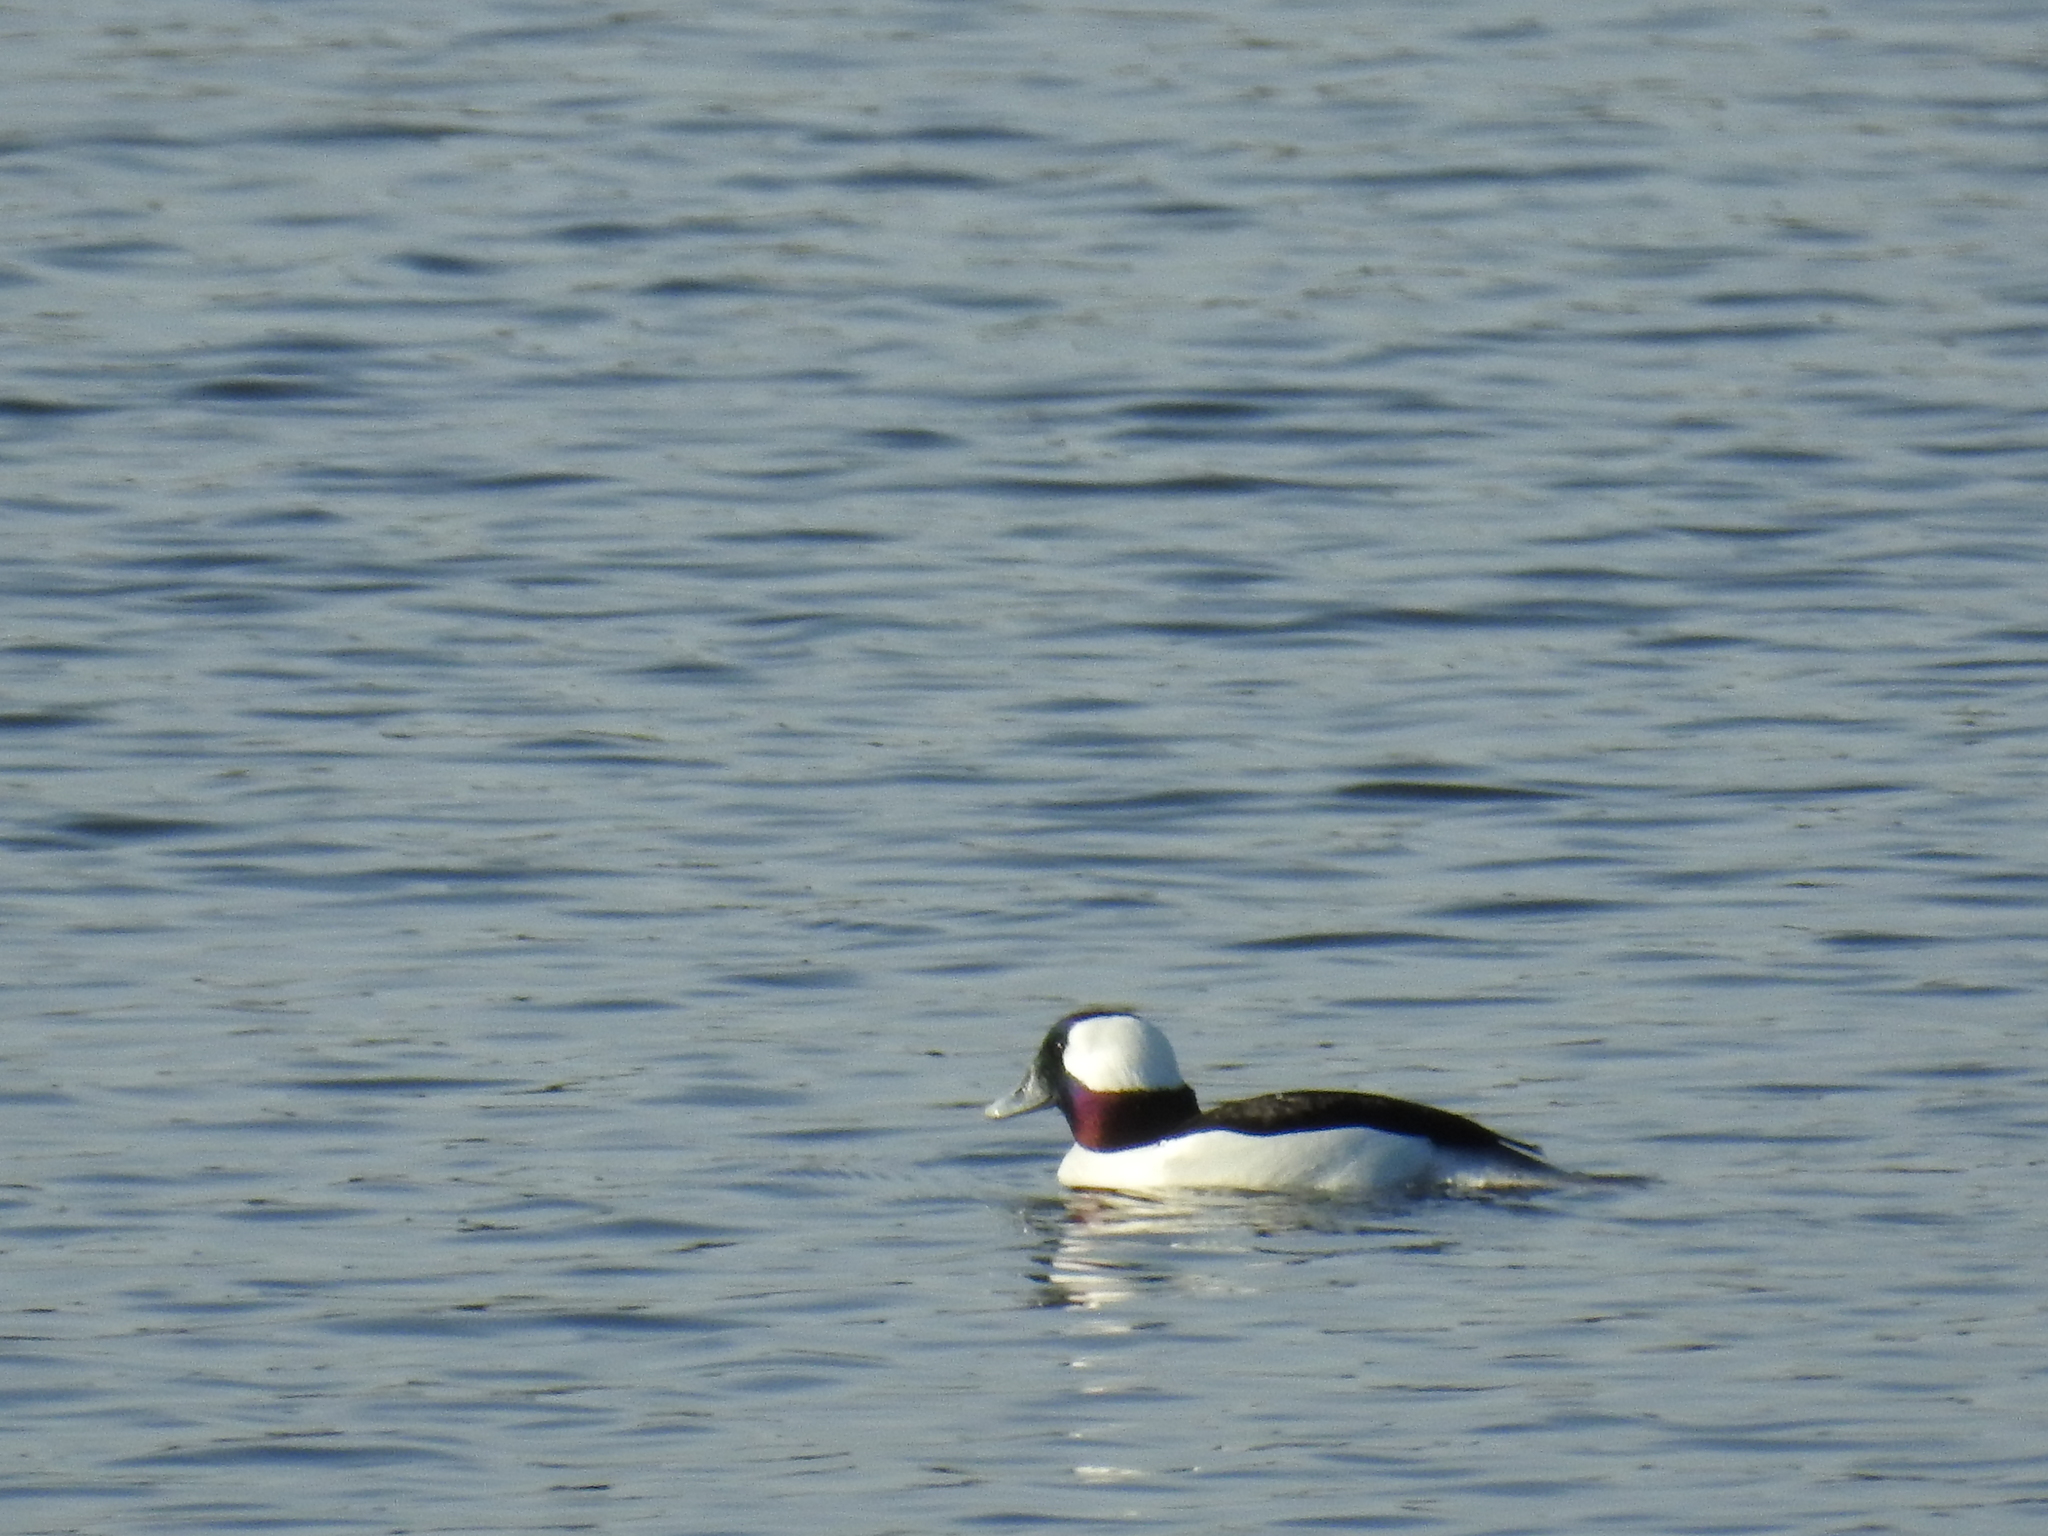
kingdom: Animalia
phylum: Chordata
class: Aves
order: Anseriformes
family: Anatidae
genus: Bucephala
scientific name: Bucephala albeola
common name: Bufflehead
